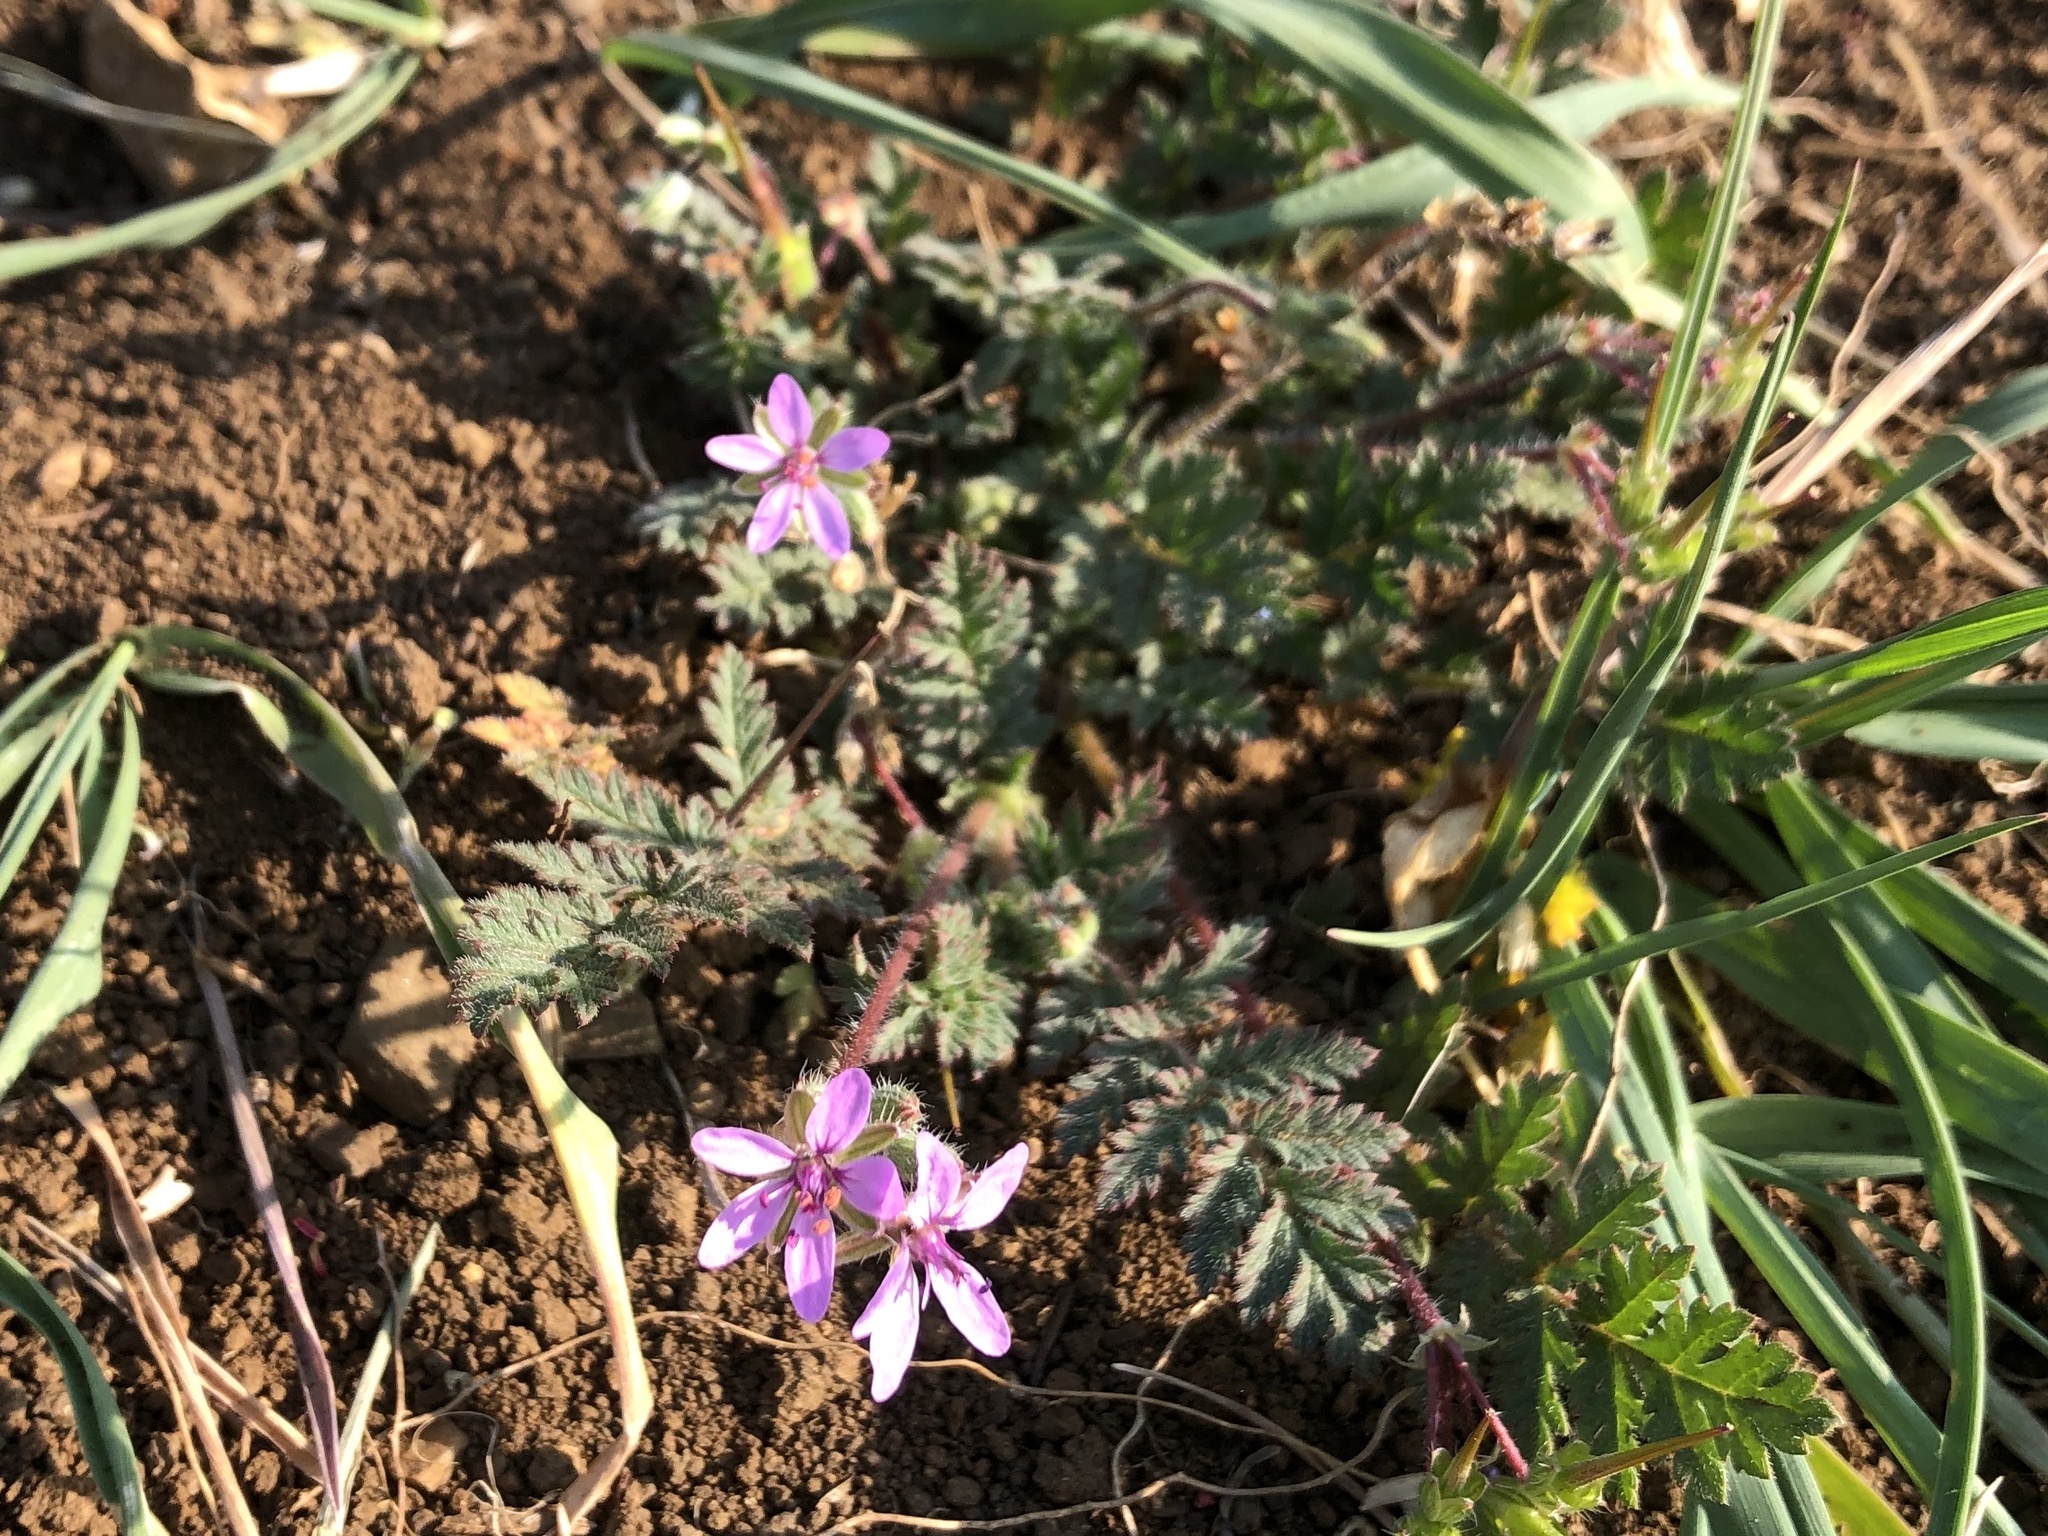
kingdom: Plantae
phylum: Tracheophyta
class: Magnoliopsida
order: Geraniales
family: Geraniaceae
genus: Erodium
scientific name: Erodium cicutarium
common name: Common stork's-bill
